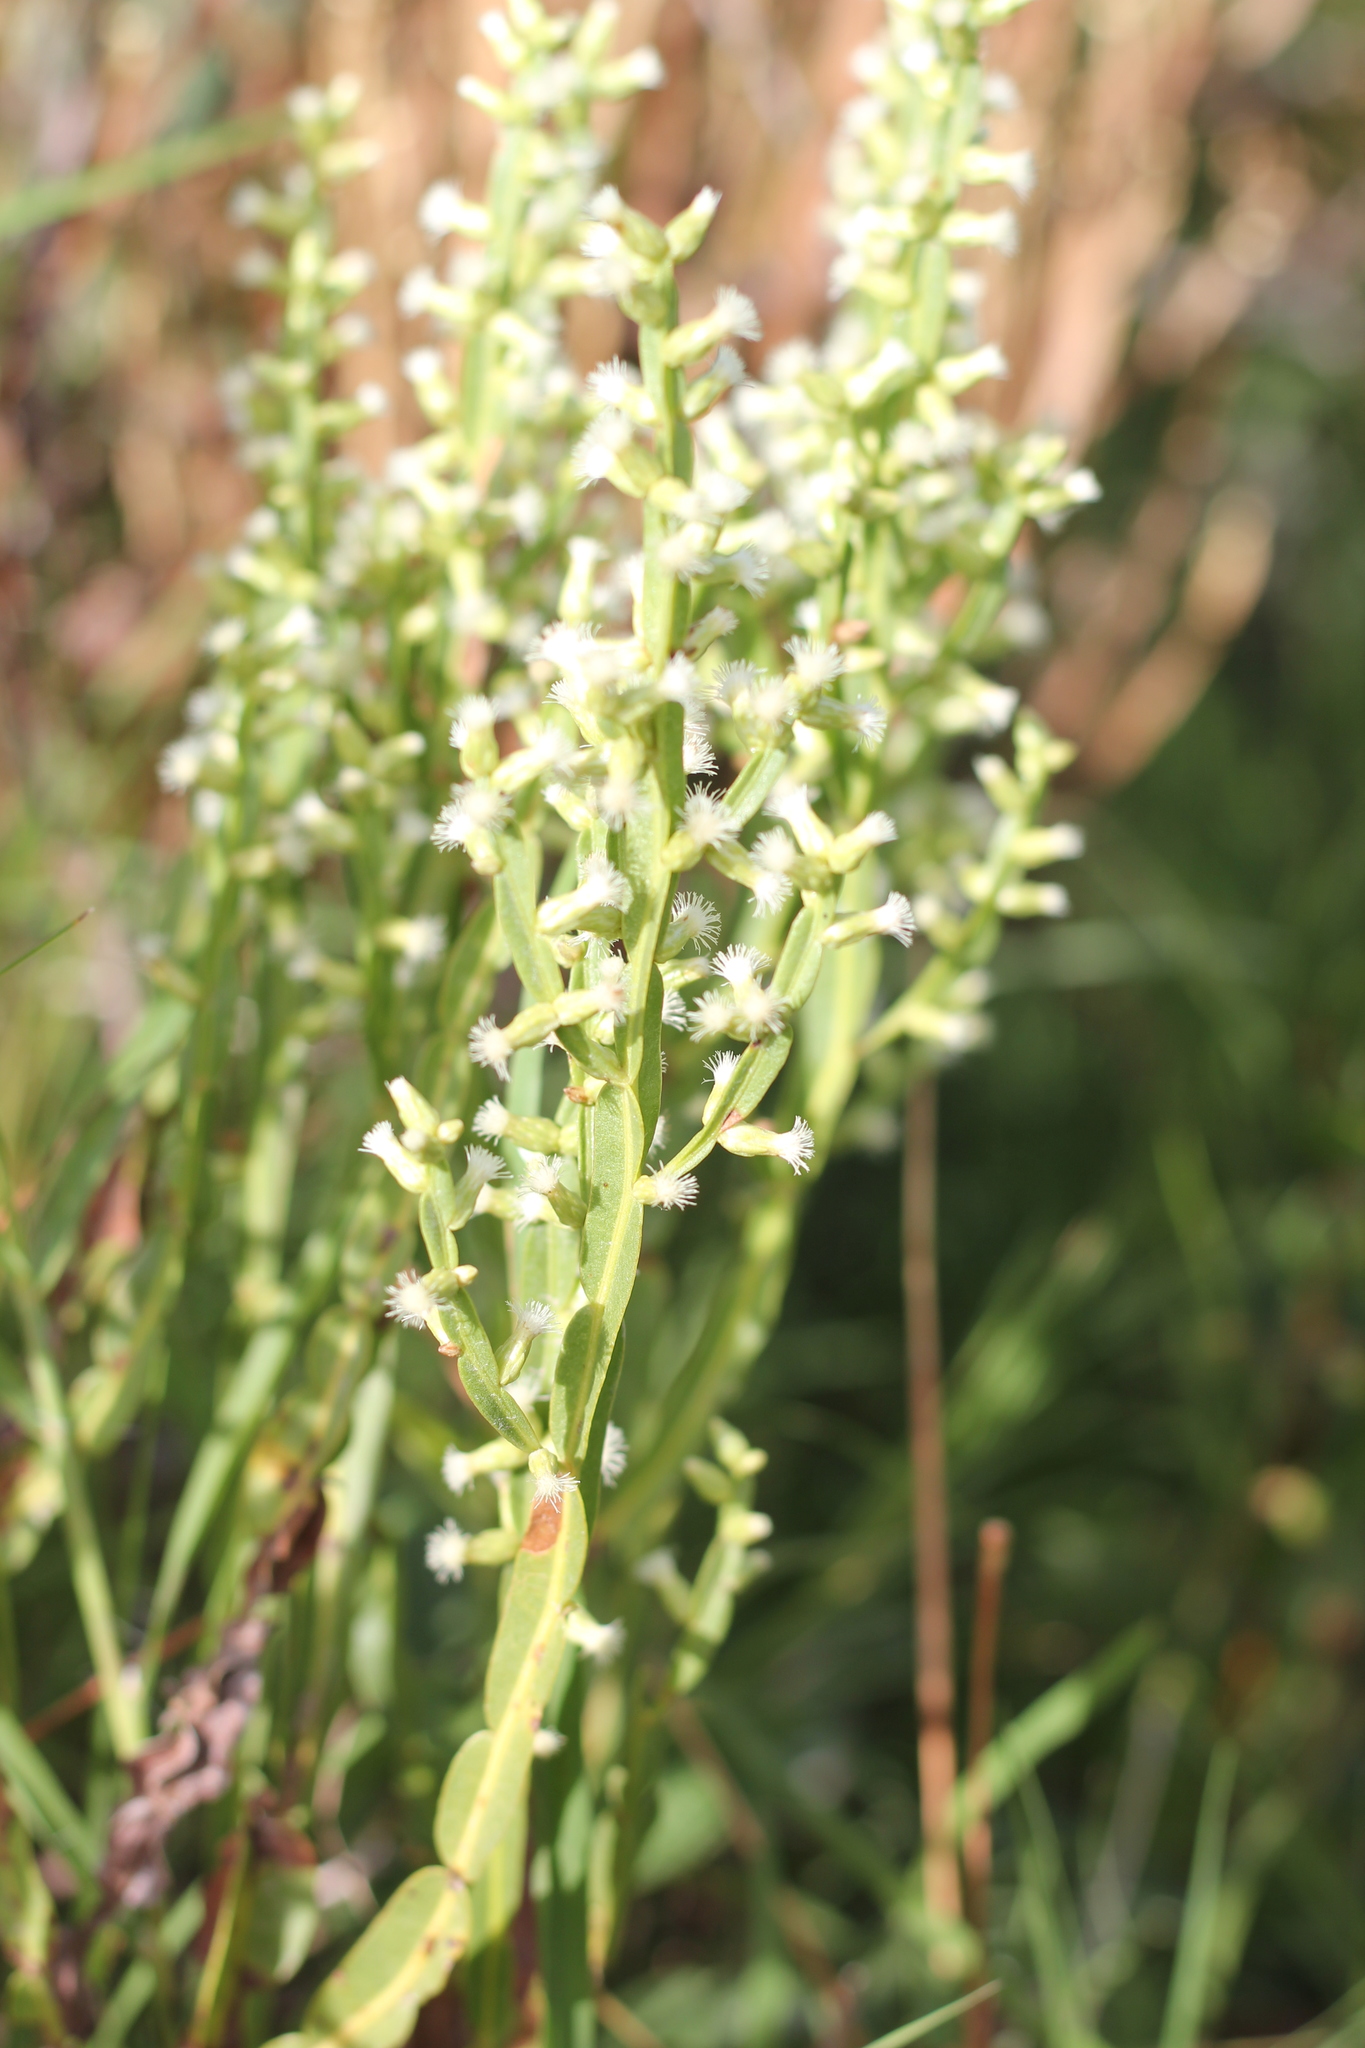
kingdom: Plantae
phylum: Tracheophyta
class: Magnoliopsida
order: Asterales
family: Asteraceae
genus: Baccharis
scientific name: Baccharis trimera
